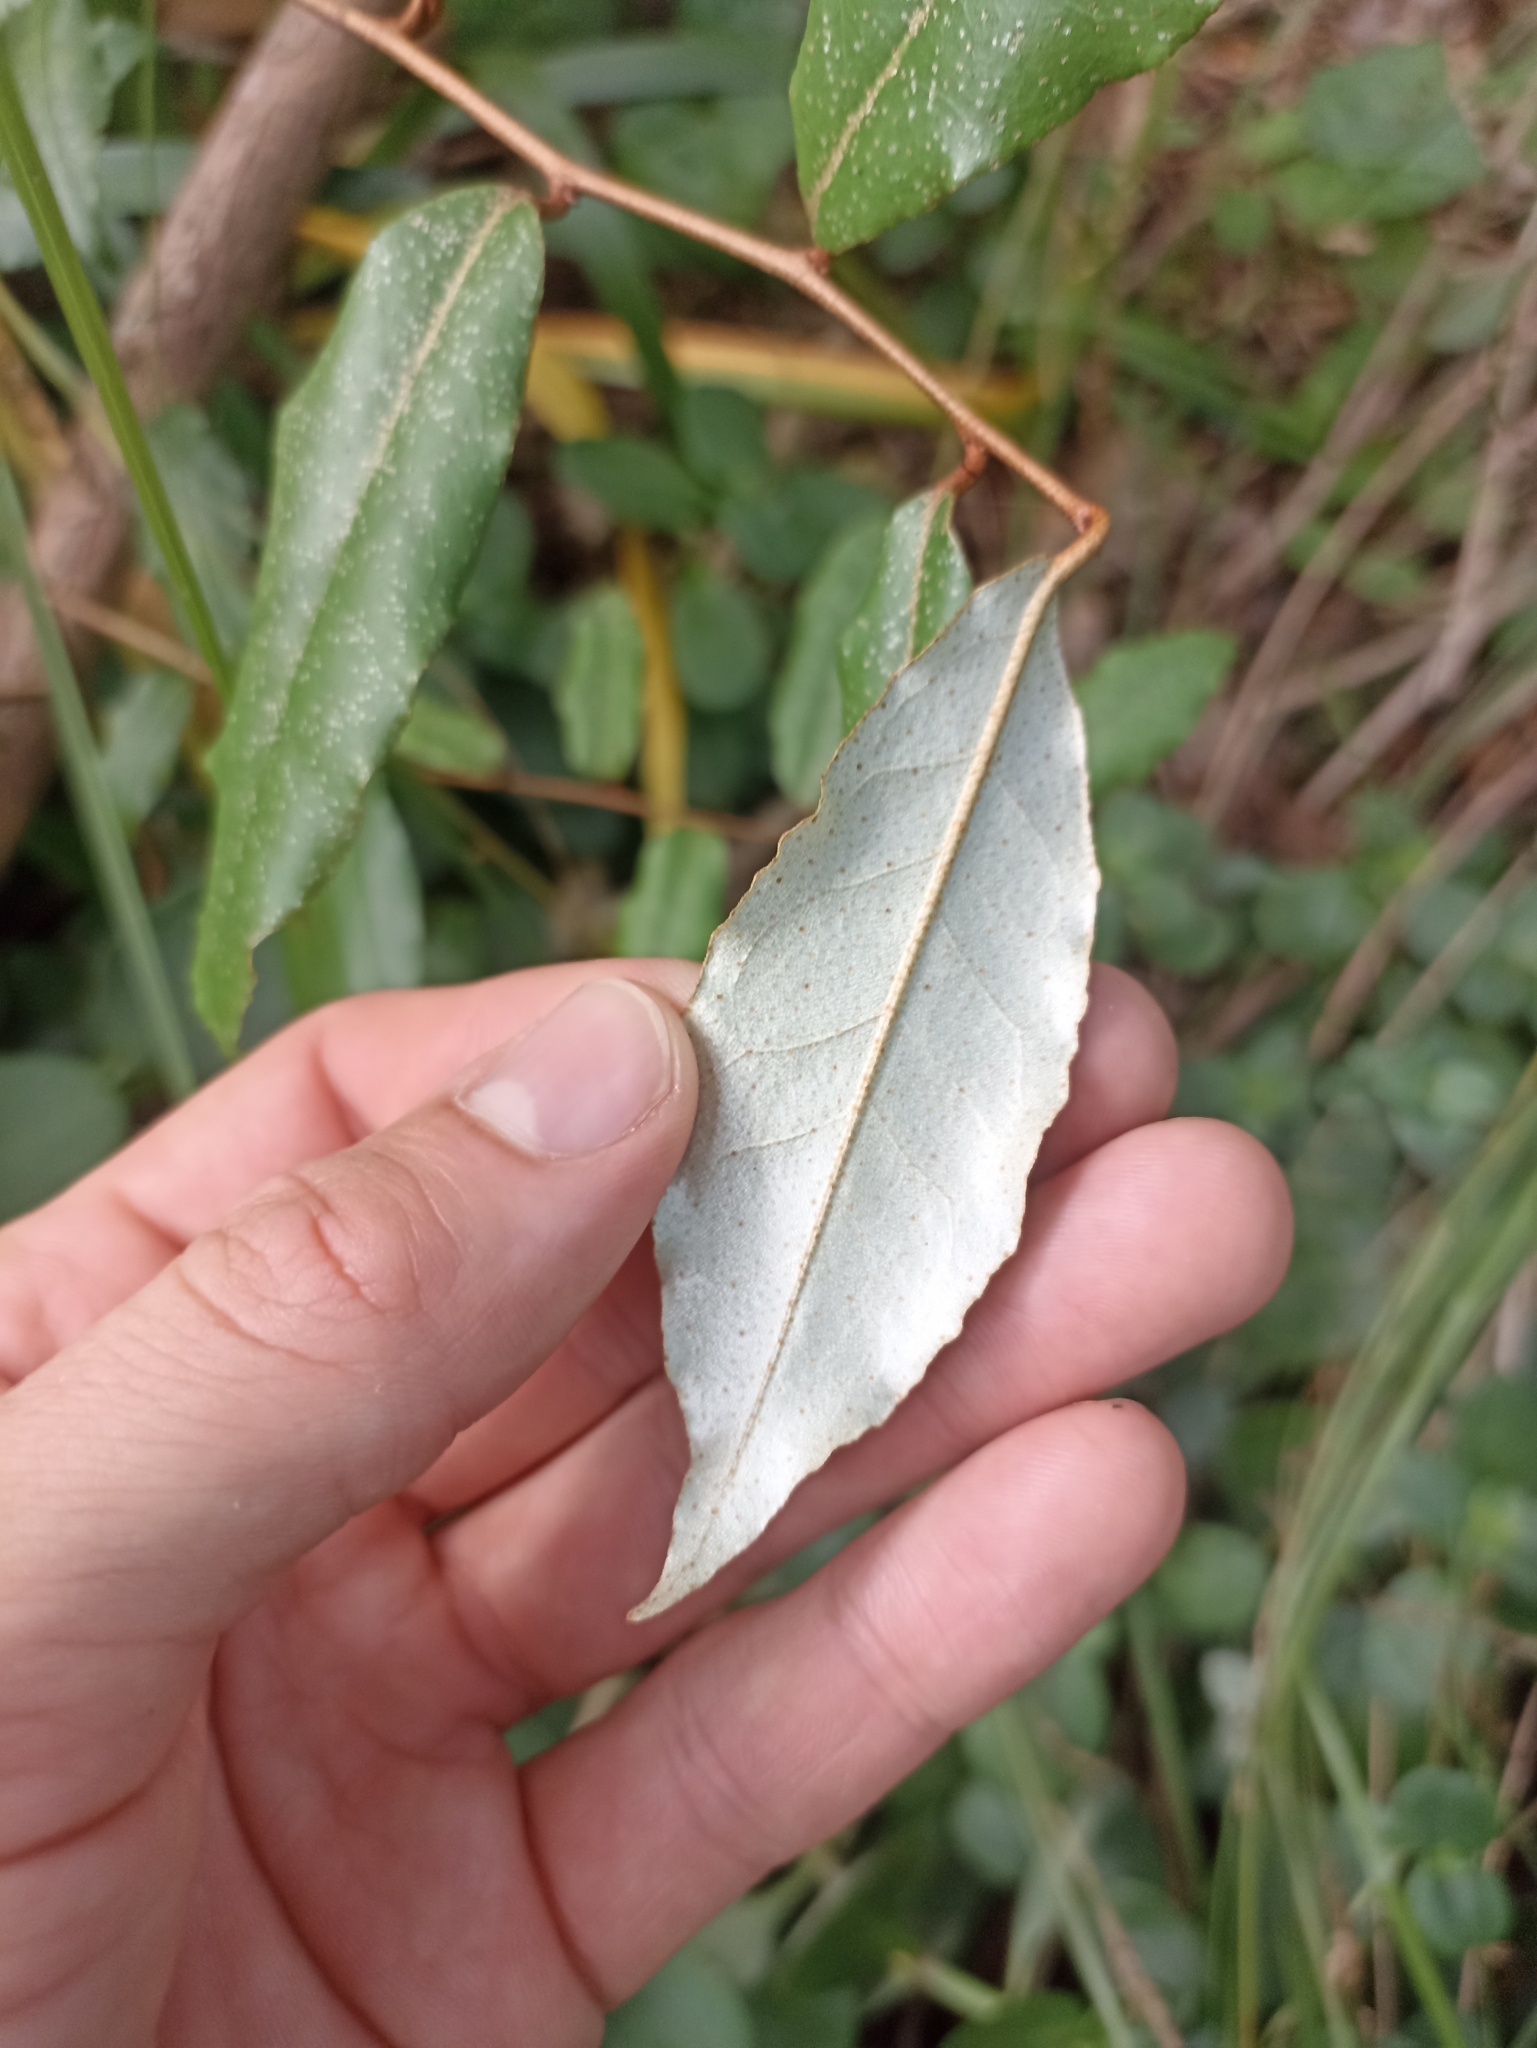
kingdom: Plantae
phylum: Tracheophyta
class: Magnoliopsida
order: Rosales
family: Elaeagnaceae
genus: Elaeagnus
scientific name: Elaeagnus reflexa
